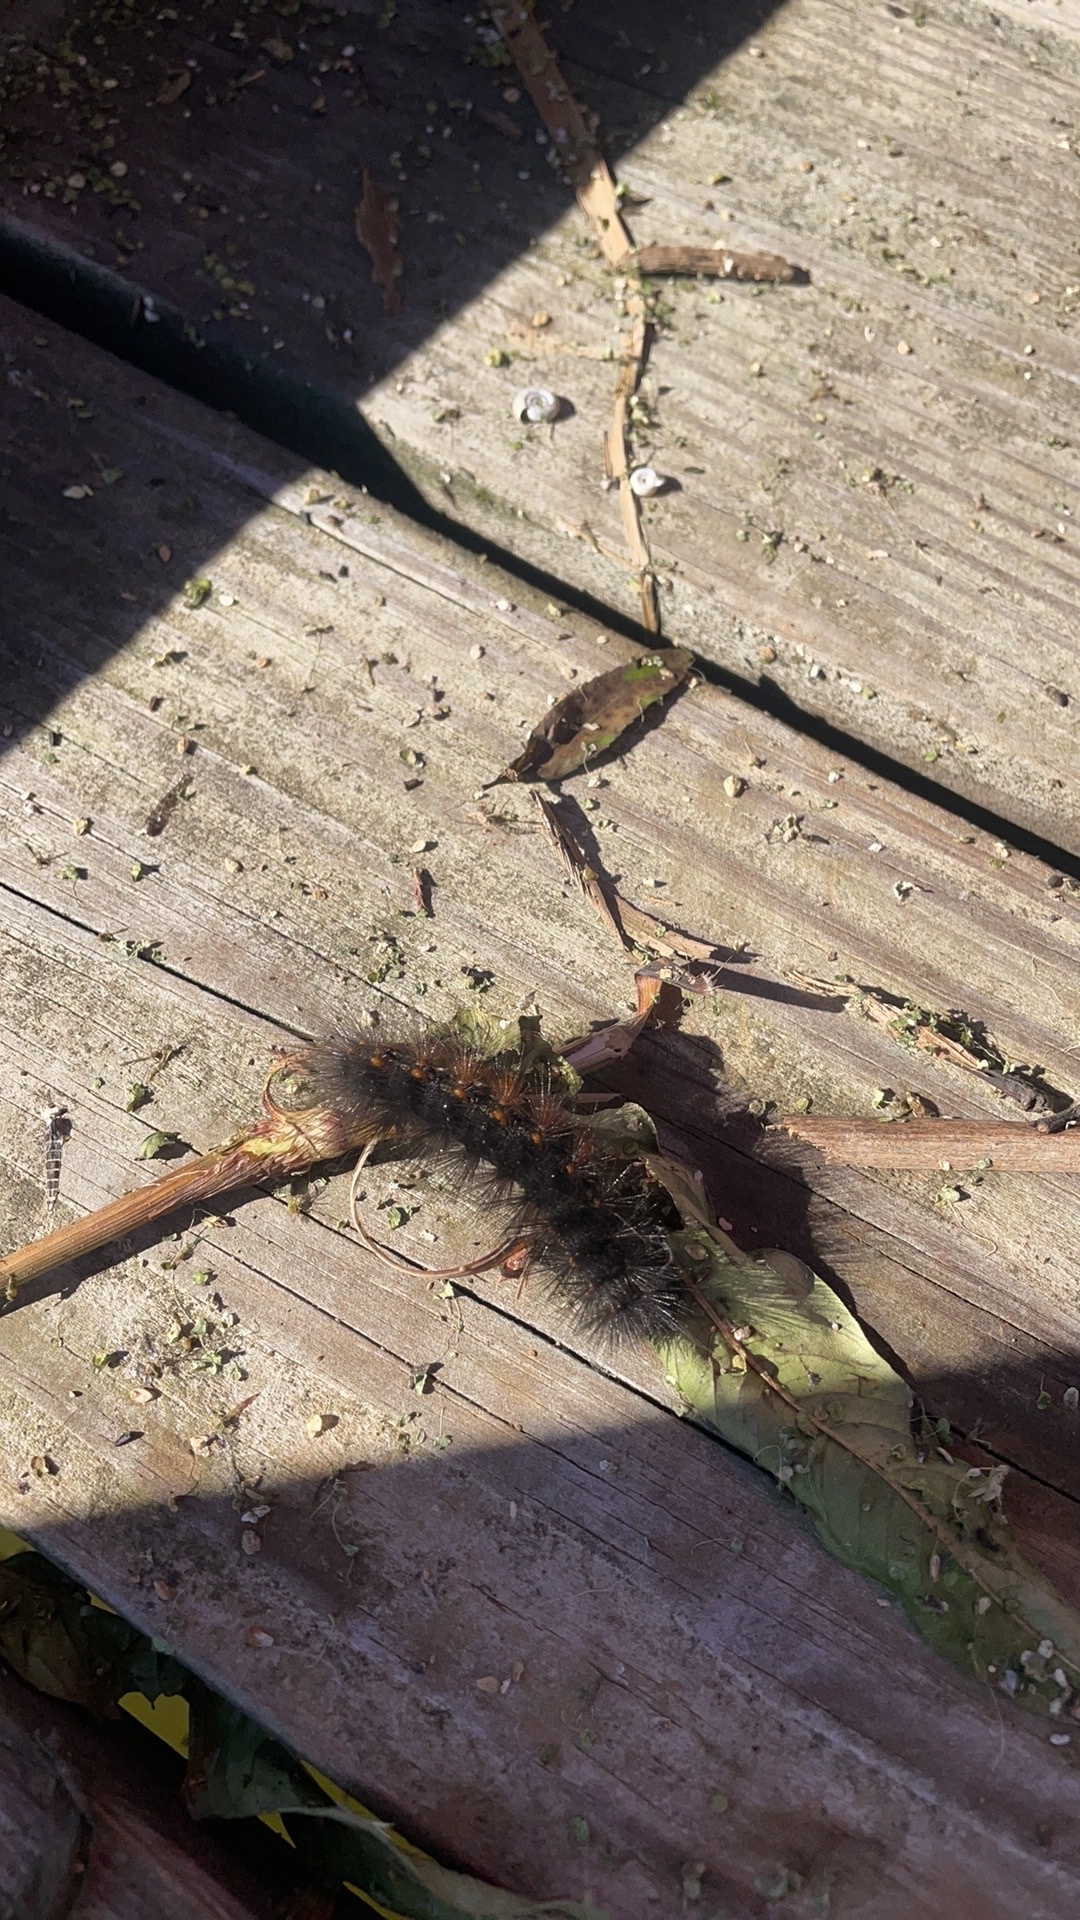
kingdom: Animalia
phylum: Arthropoda
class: Insecta
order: Lepidoptera
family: Erebidae
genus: Estigmene
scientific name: Estigmene acrea
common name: Salt marsh moth
